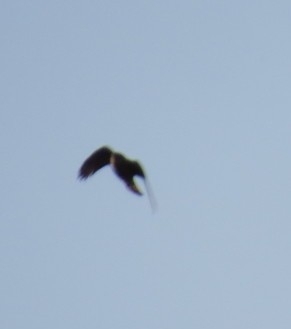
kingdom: Animalia
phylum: Chordata
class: Aves
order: Accipitriformes
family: Accipitridae
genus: Accipiter
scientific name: Accipiter nisus
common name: Eurasian sparrowhawk
